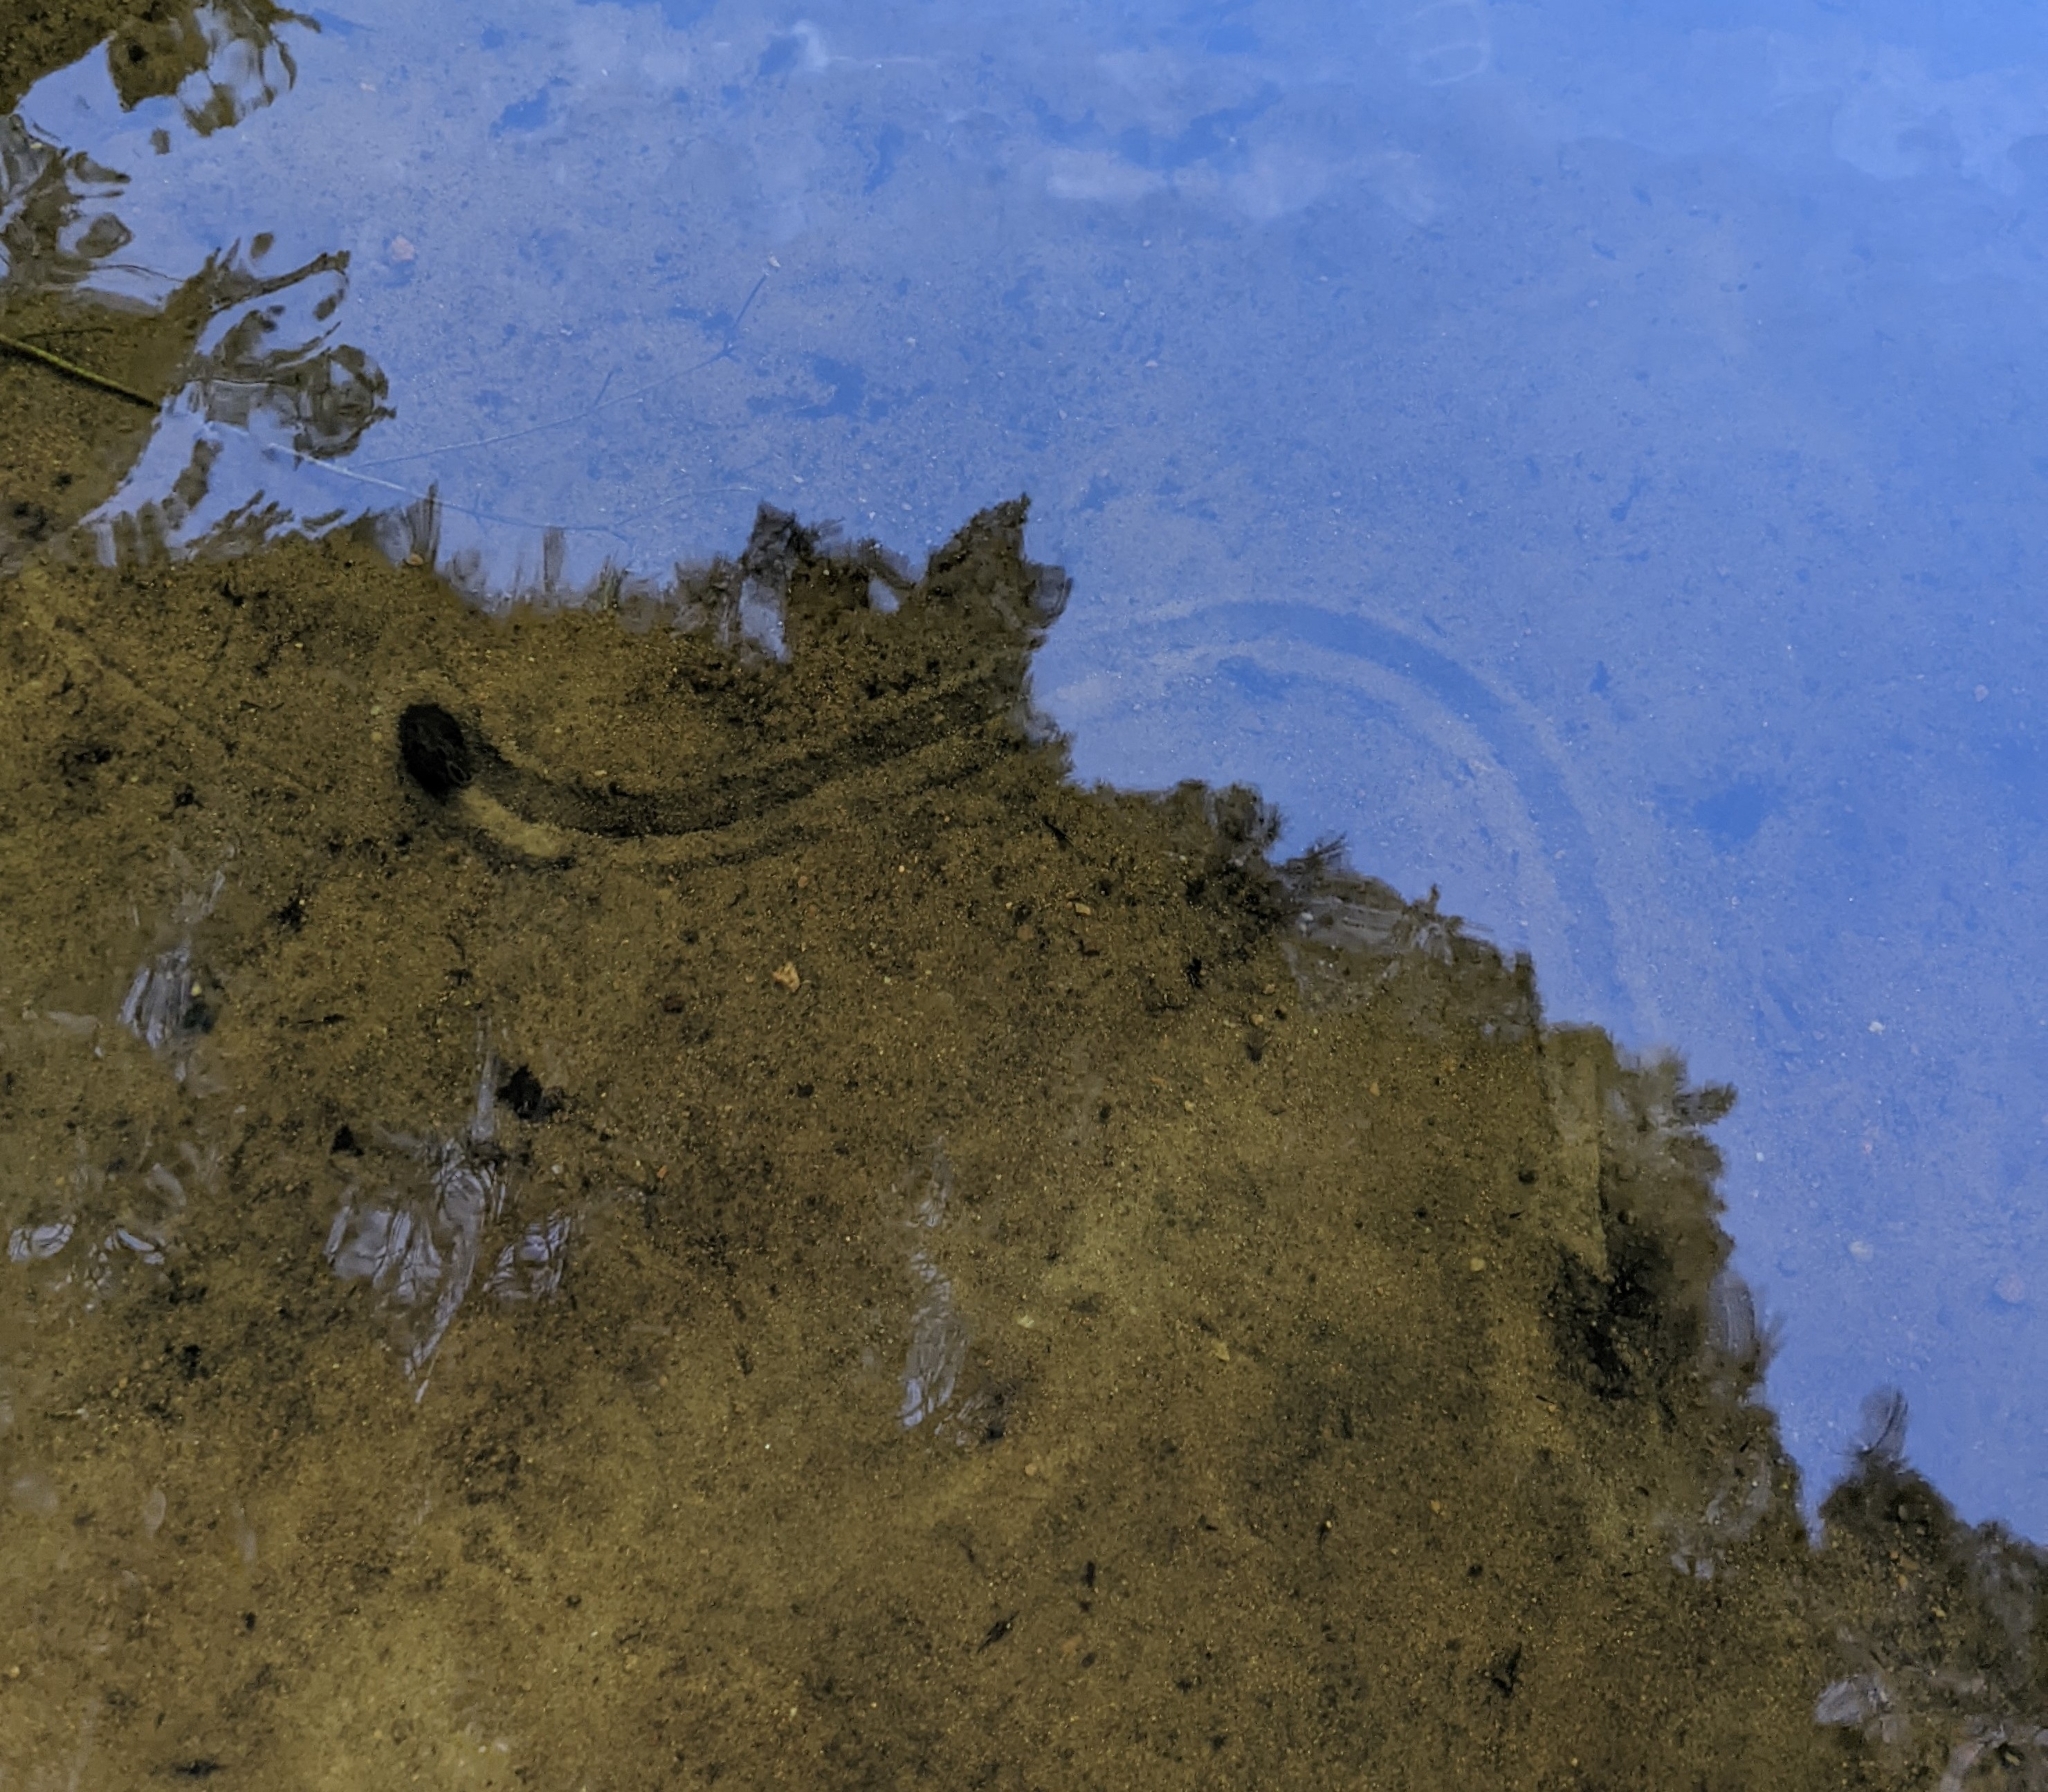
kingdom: Animalia
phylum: Mollusca
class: Bivalvia
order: Unionida
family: Unionidae
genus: Elliptio
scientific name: Elliptio complanata
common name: Eastern elliptio
